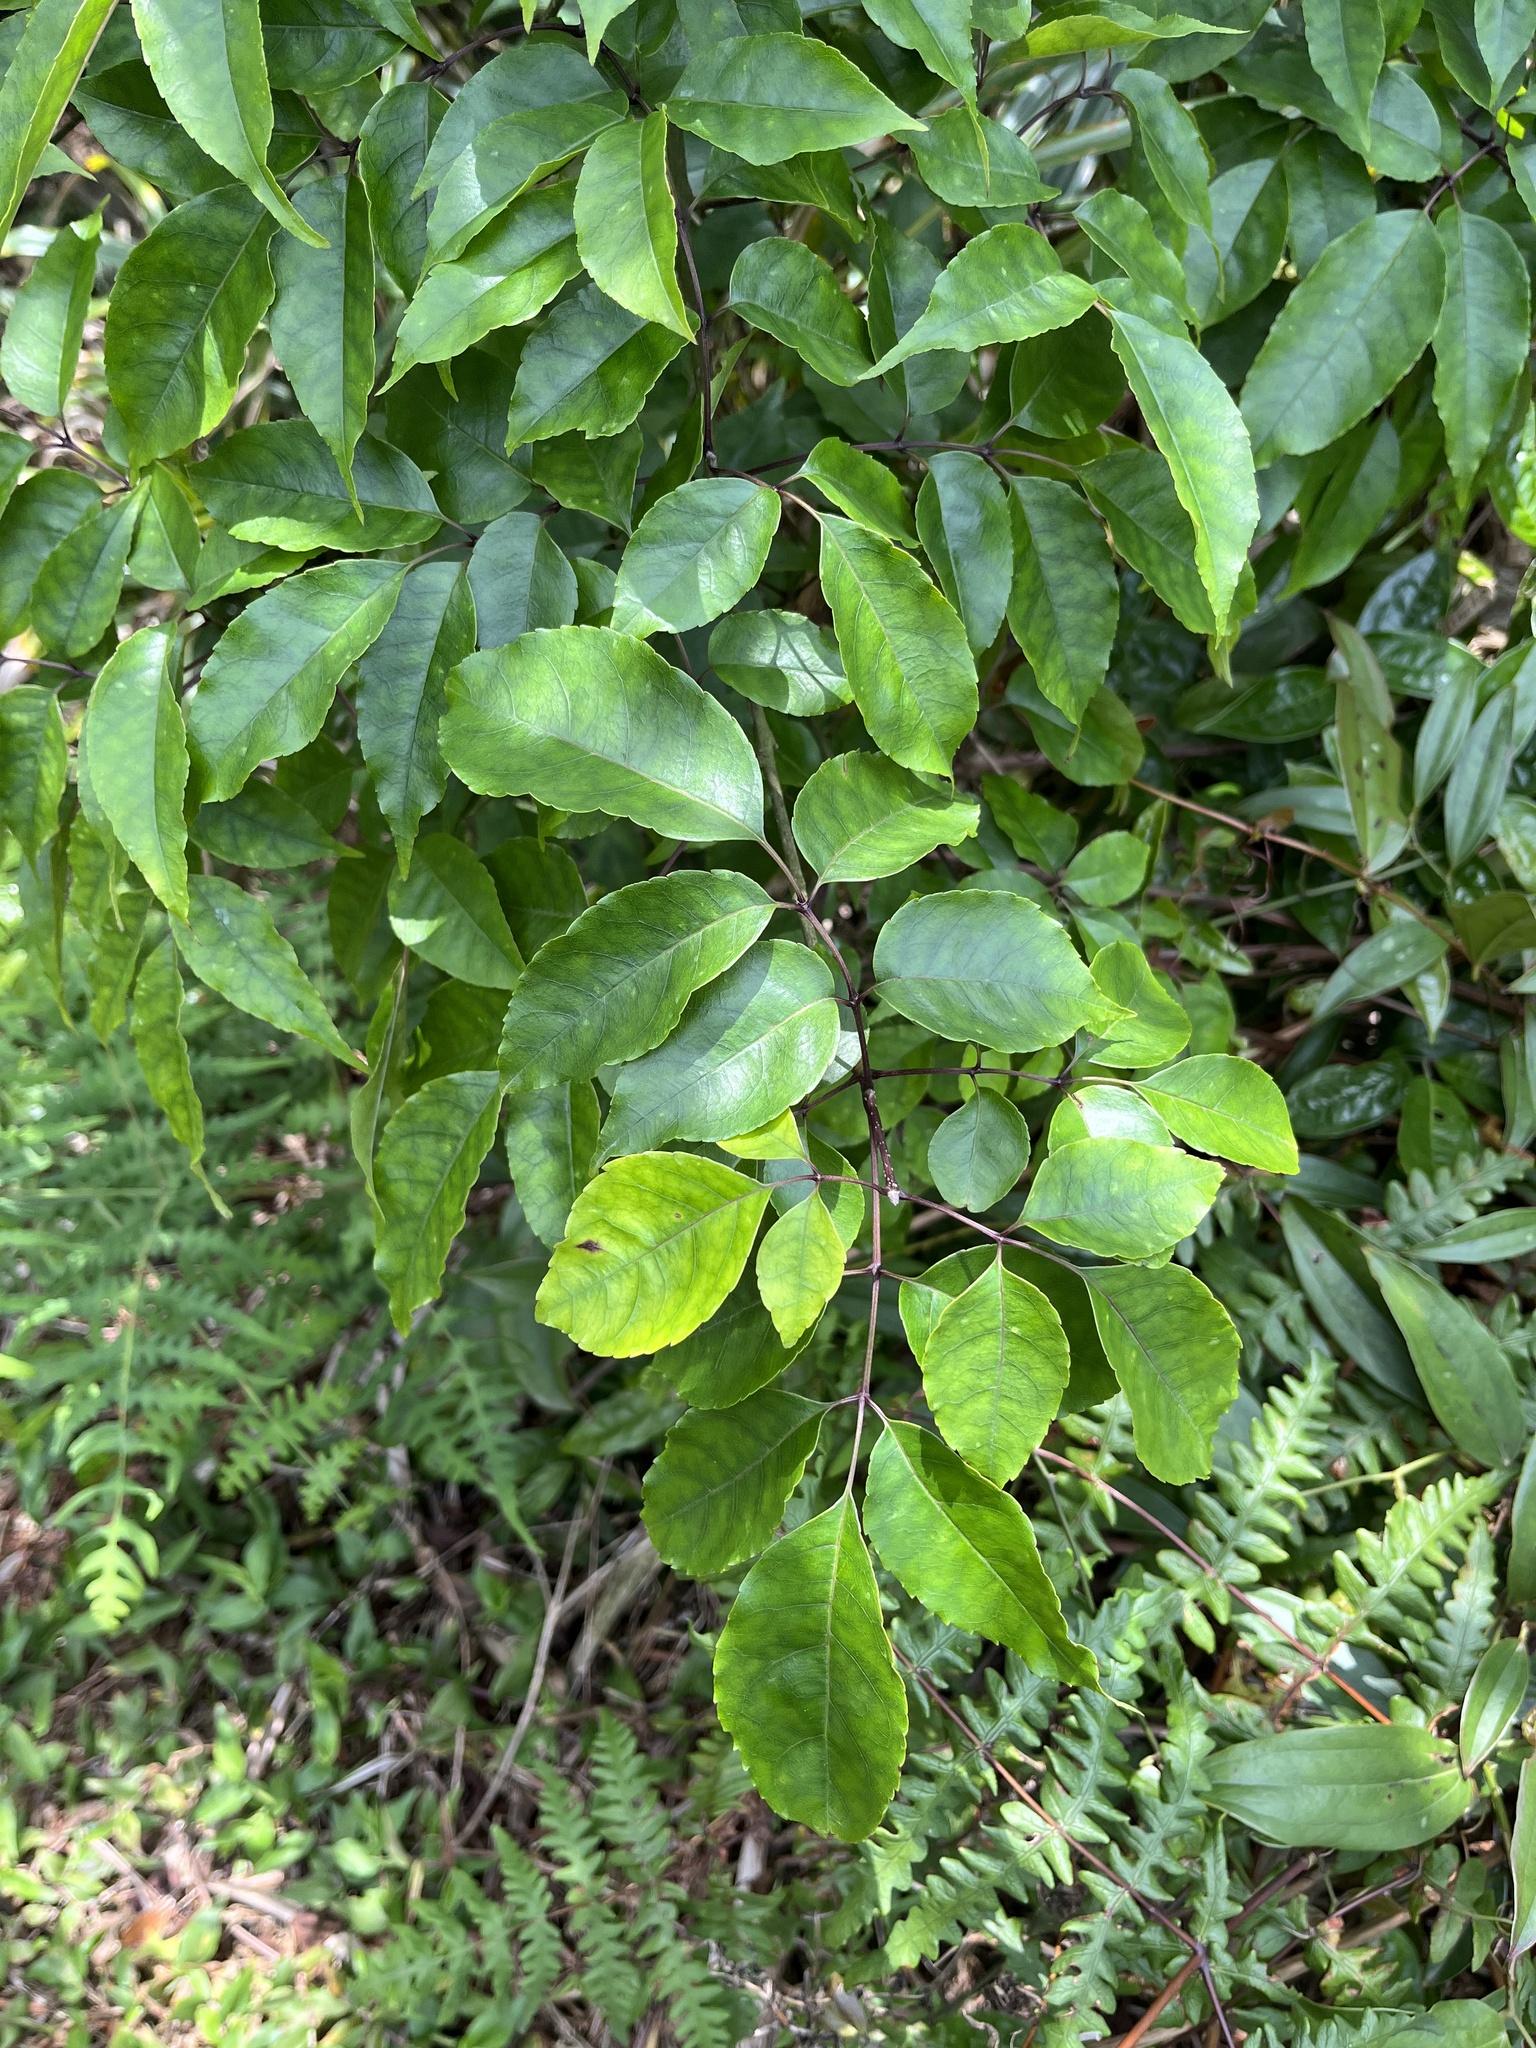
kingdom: Plantae
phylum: Tracheophyta
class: Magnoliopsida
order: Lamiales
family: Oleaceae
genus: Fraxinus
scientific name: Fraxinus insularis
